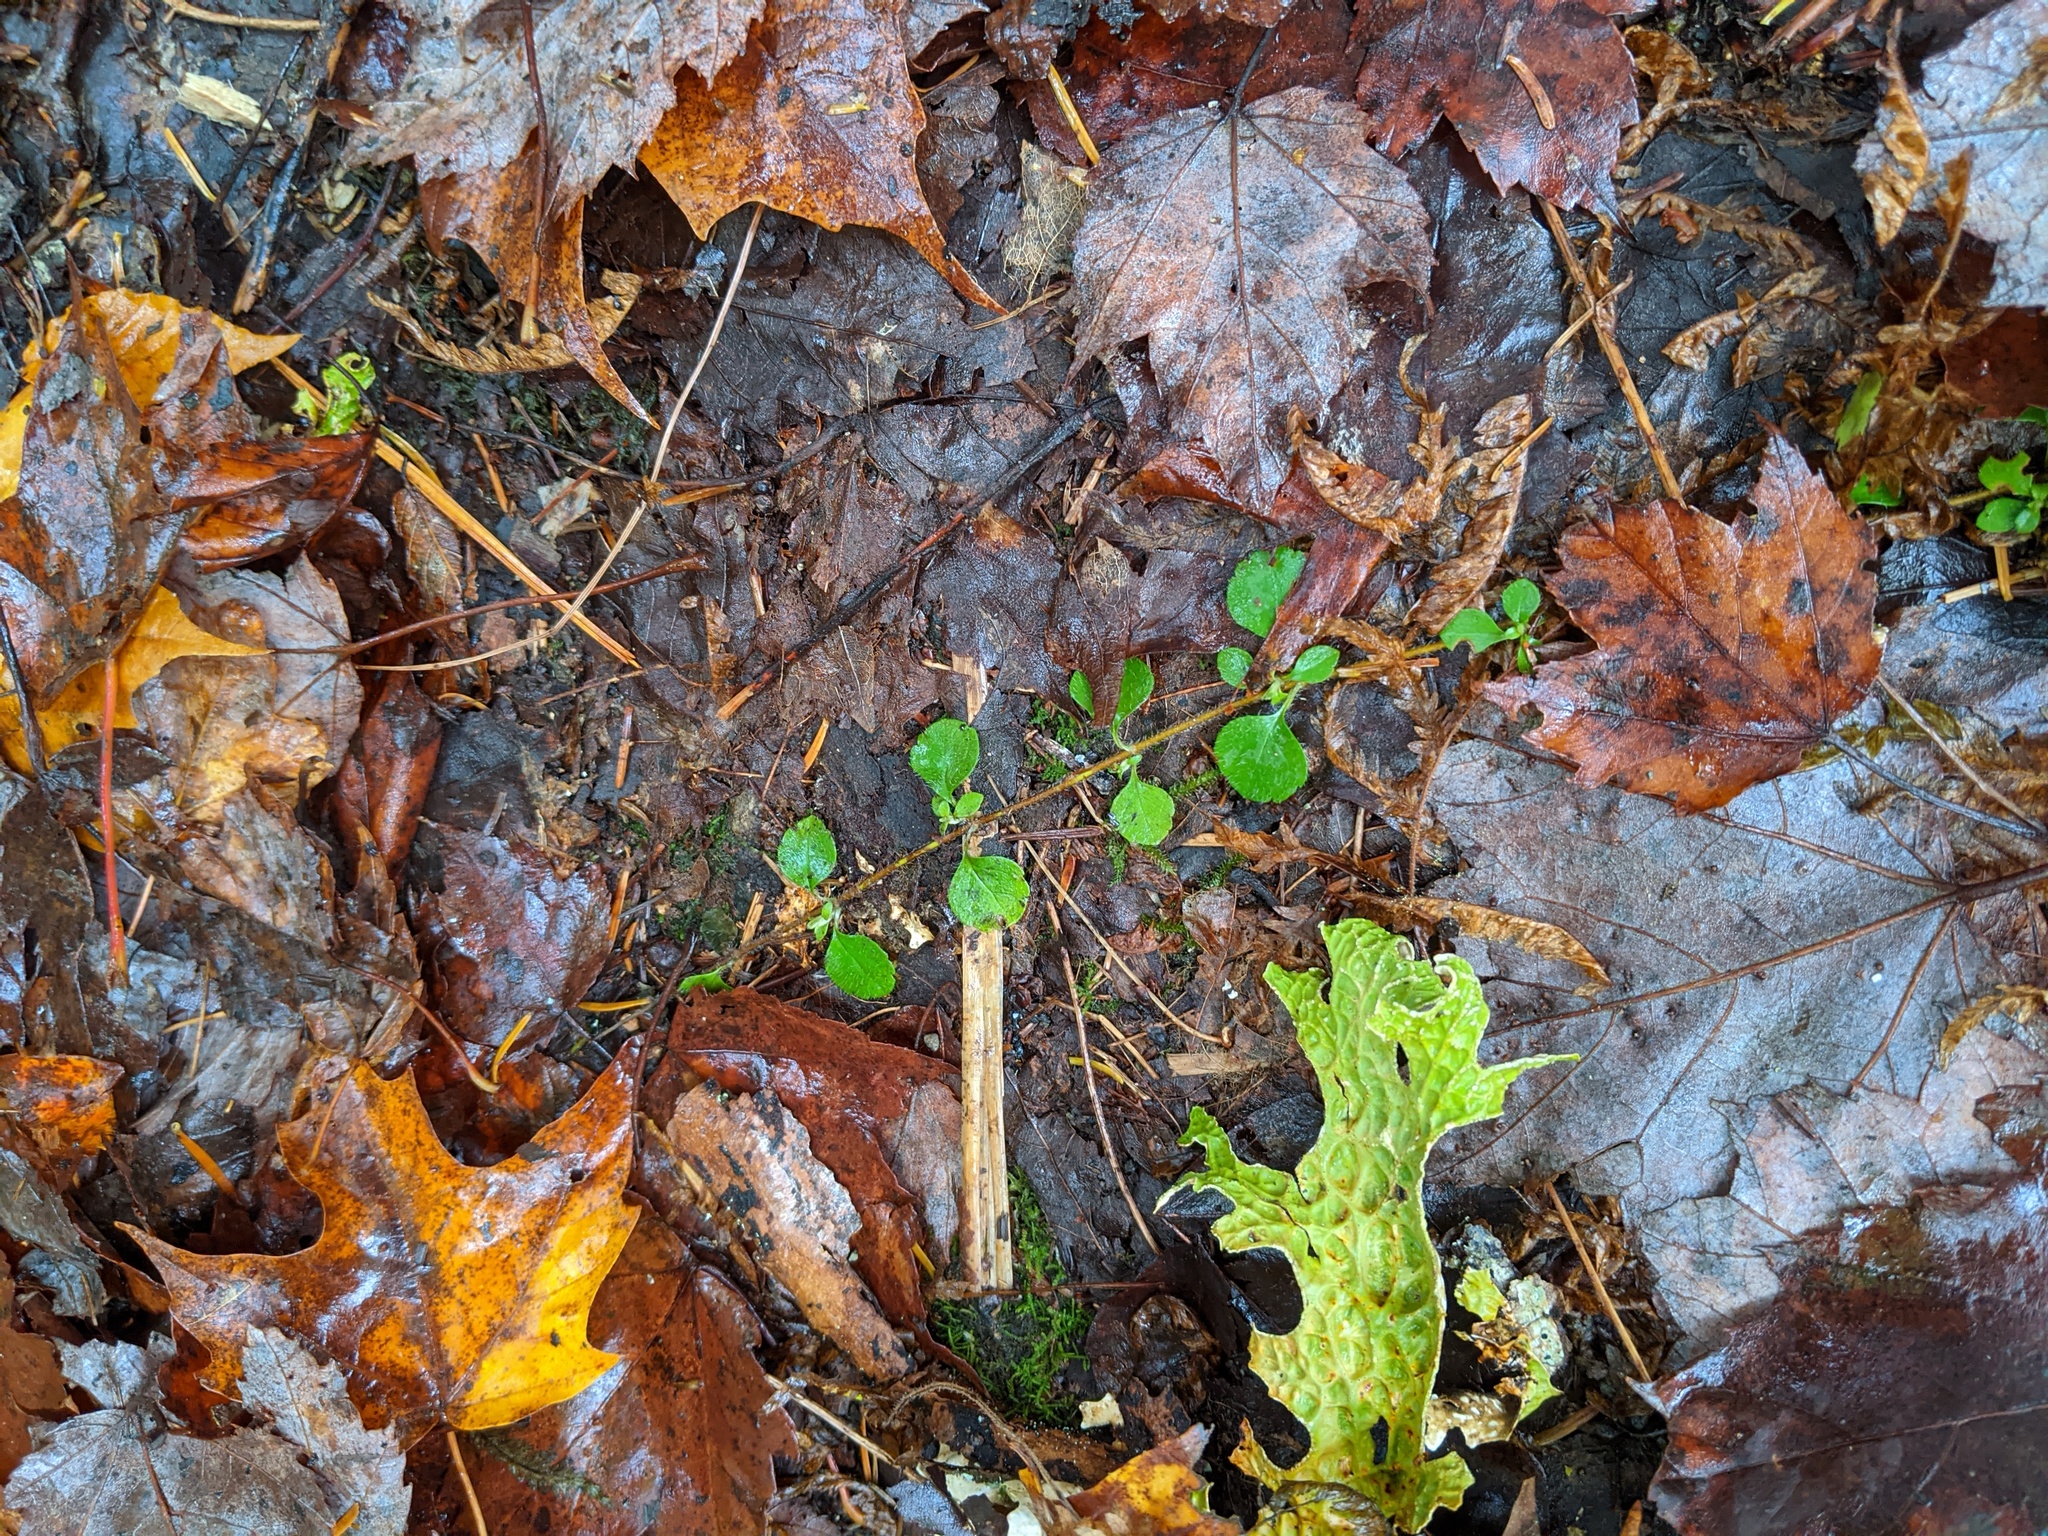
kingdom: Plantae
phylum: Tracheophyta
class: Magnoliopsida
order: Dipsacales
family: Caprifoliaceae
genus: Linnaea
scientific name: Linnaea borealis
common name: Twinflower
